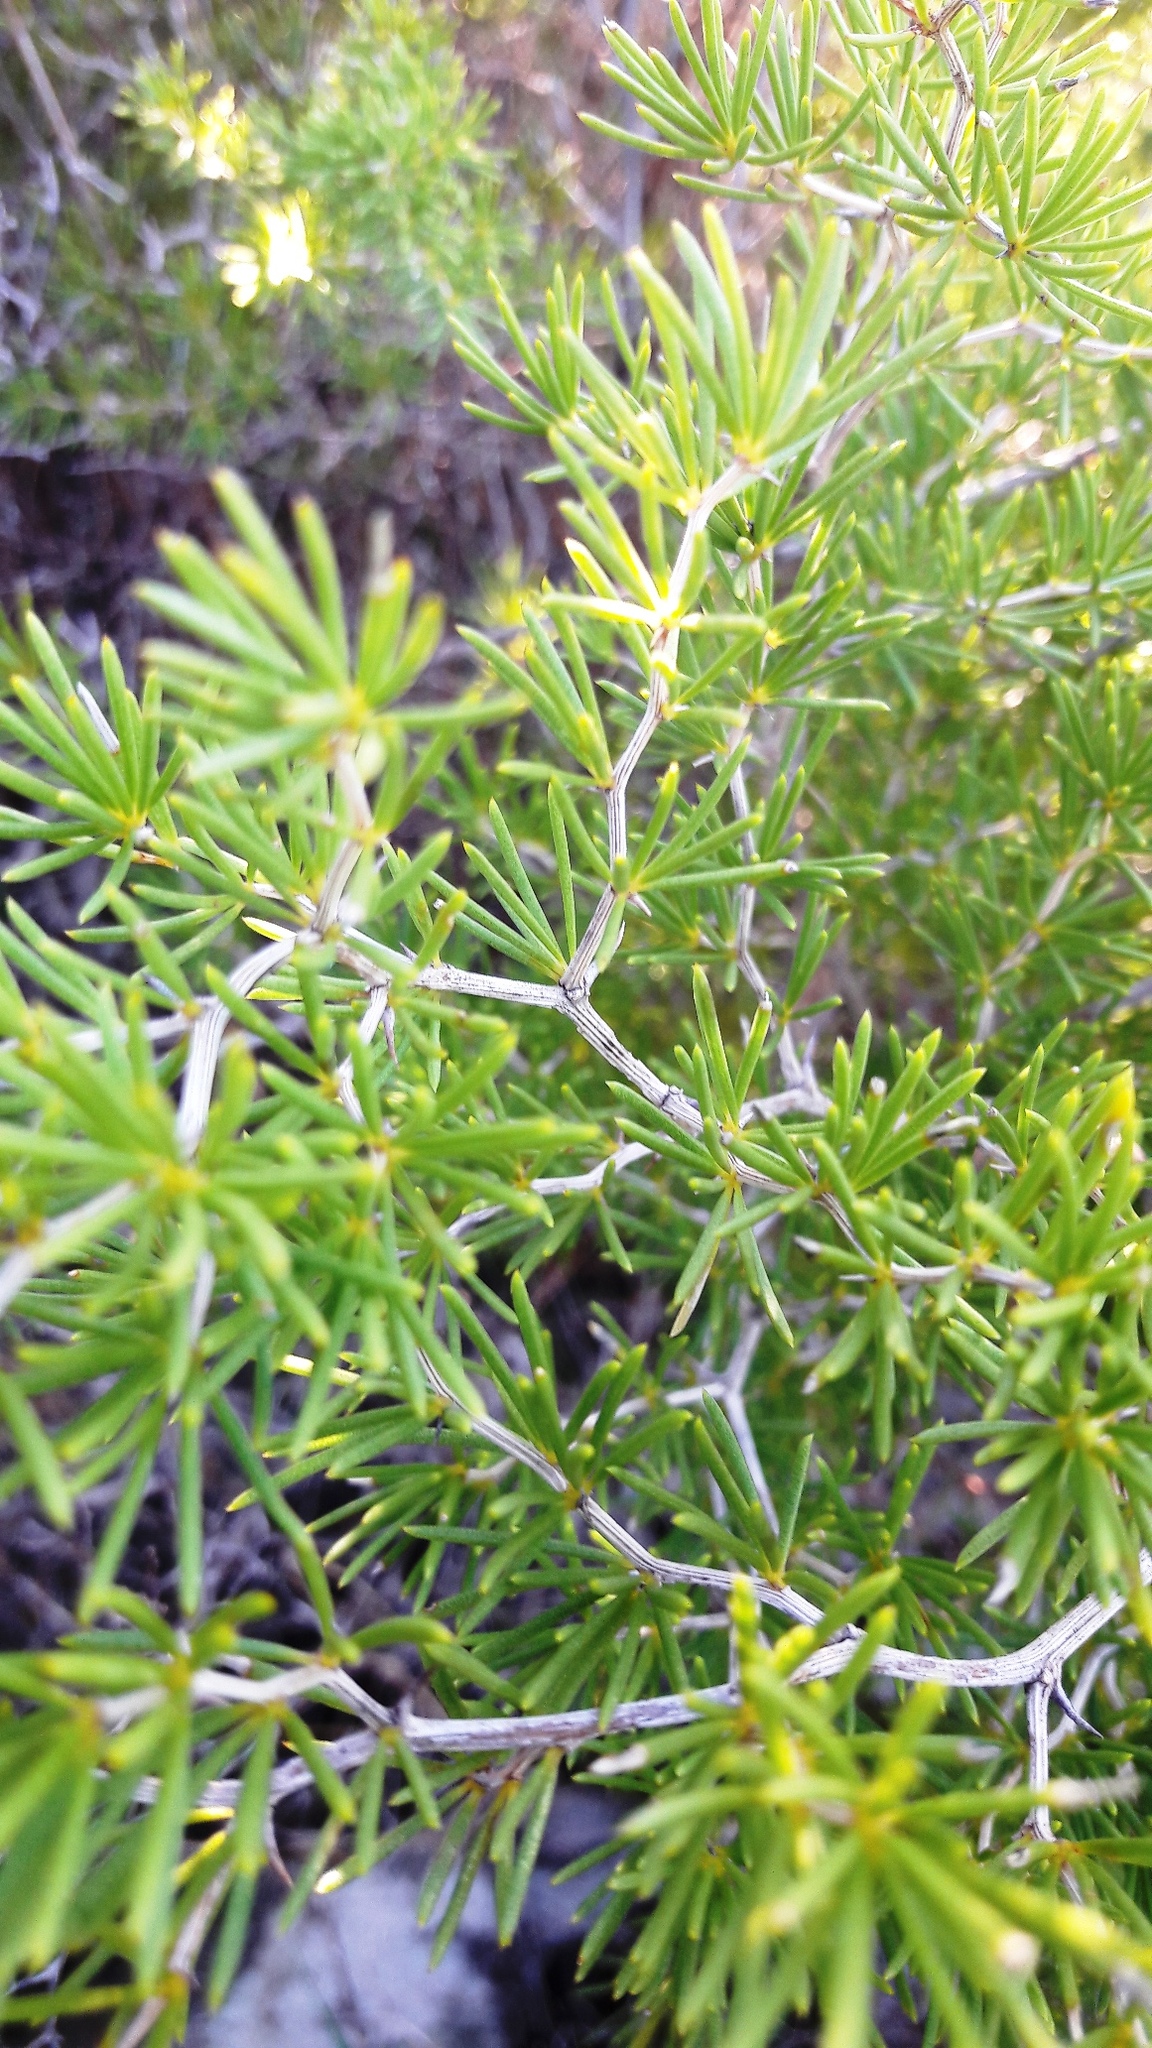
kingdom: Plantae
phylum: Tracheophyta
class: Liliopsida
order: Asparagales
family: Asparagaceae
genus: Asparagus
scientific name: Asparagus lignosus
